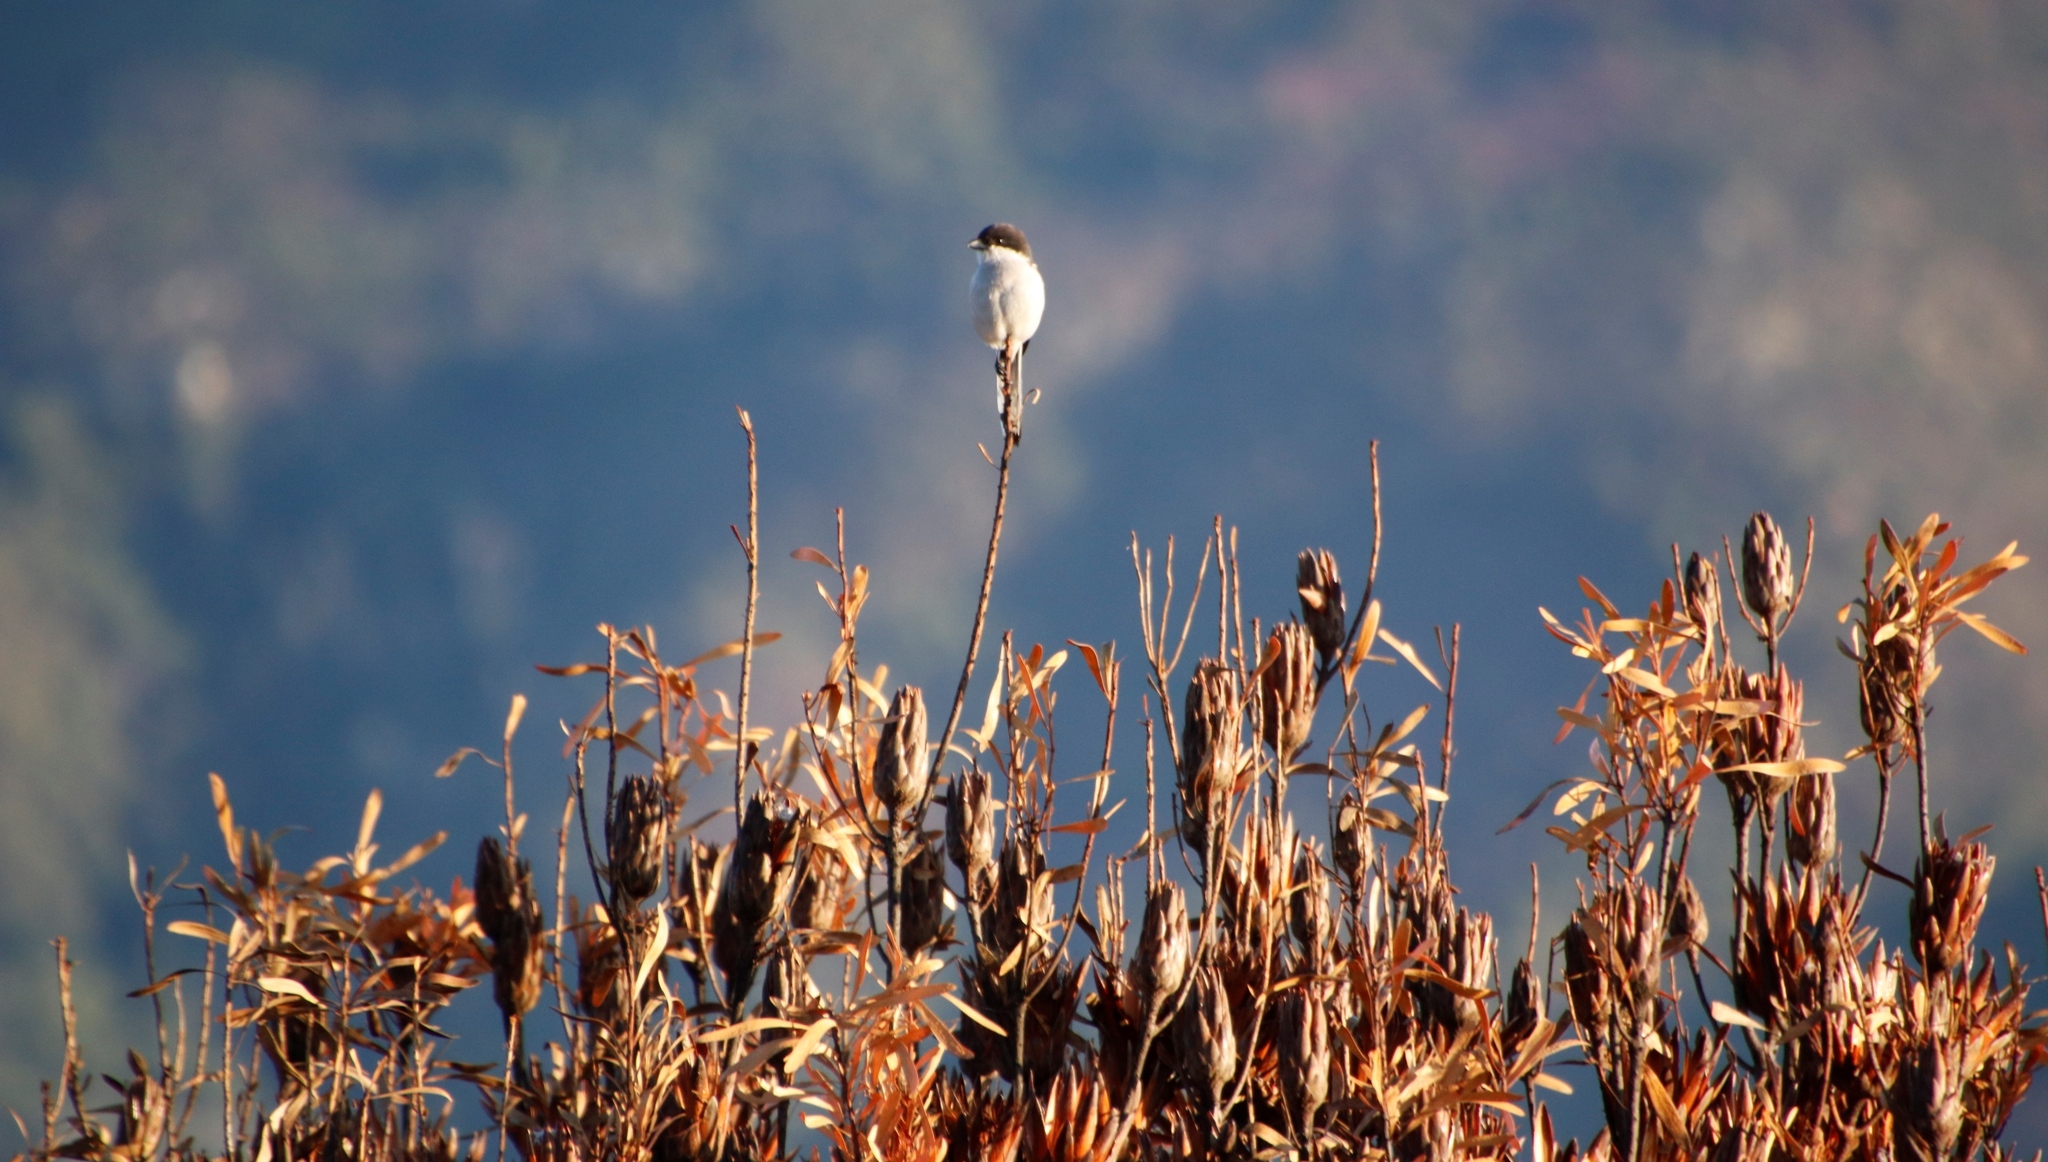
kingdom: Animalia
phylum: Chordata
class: Aves
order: Passeriformes
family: Laniidae
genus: Lanius
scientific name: Lanius collaris
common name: Southern fiscal
